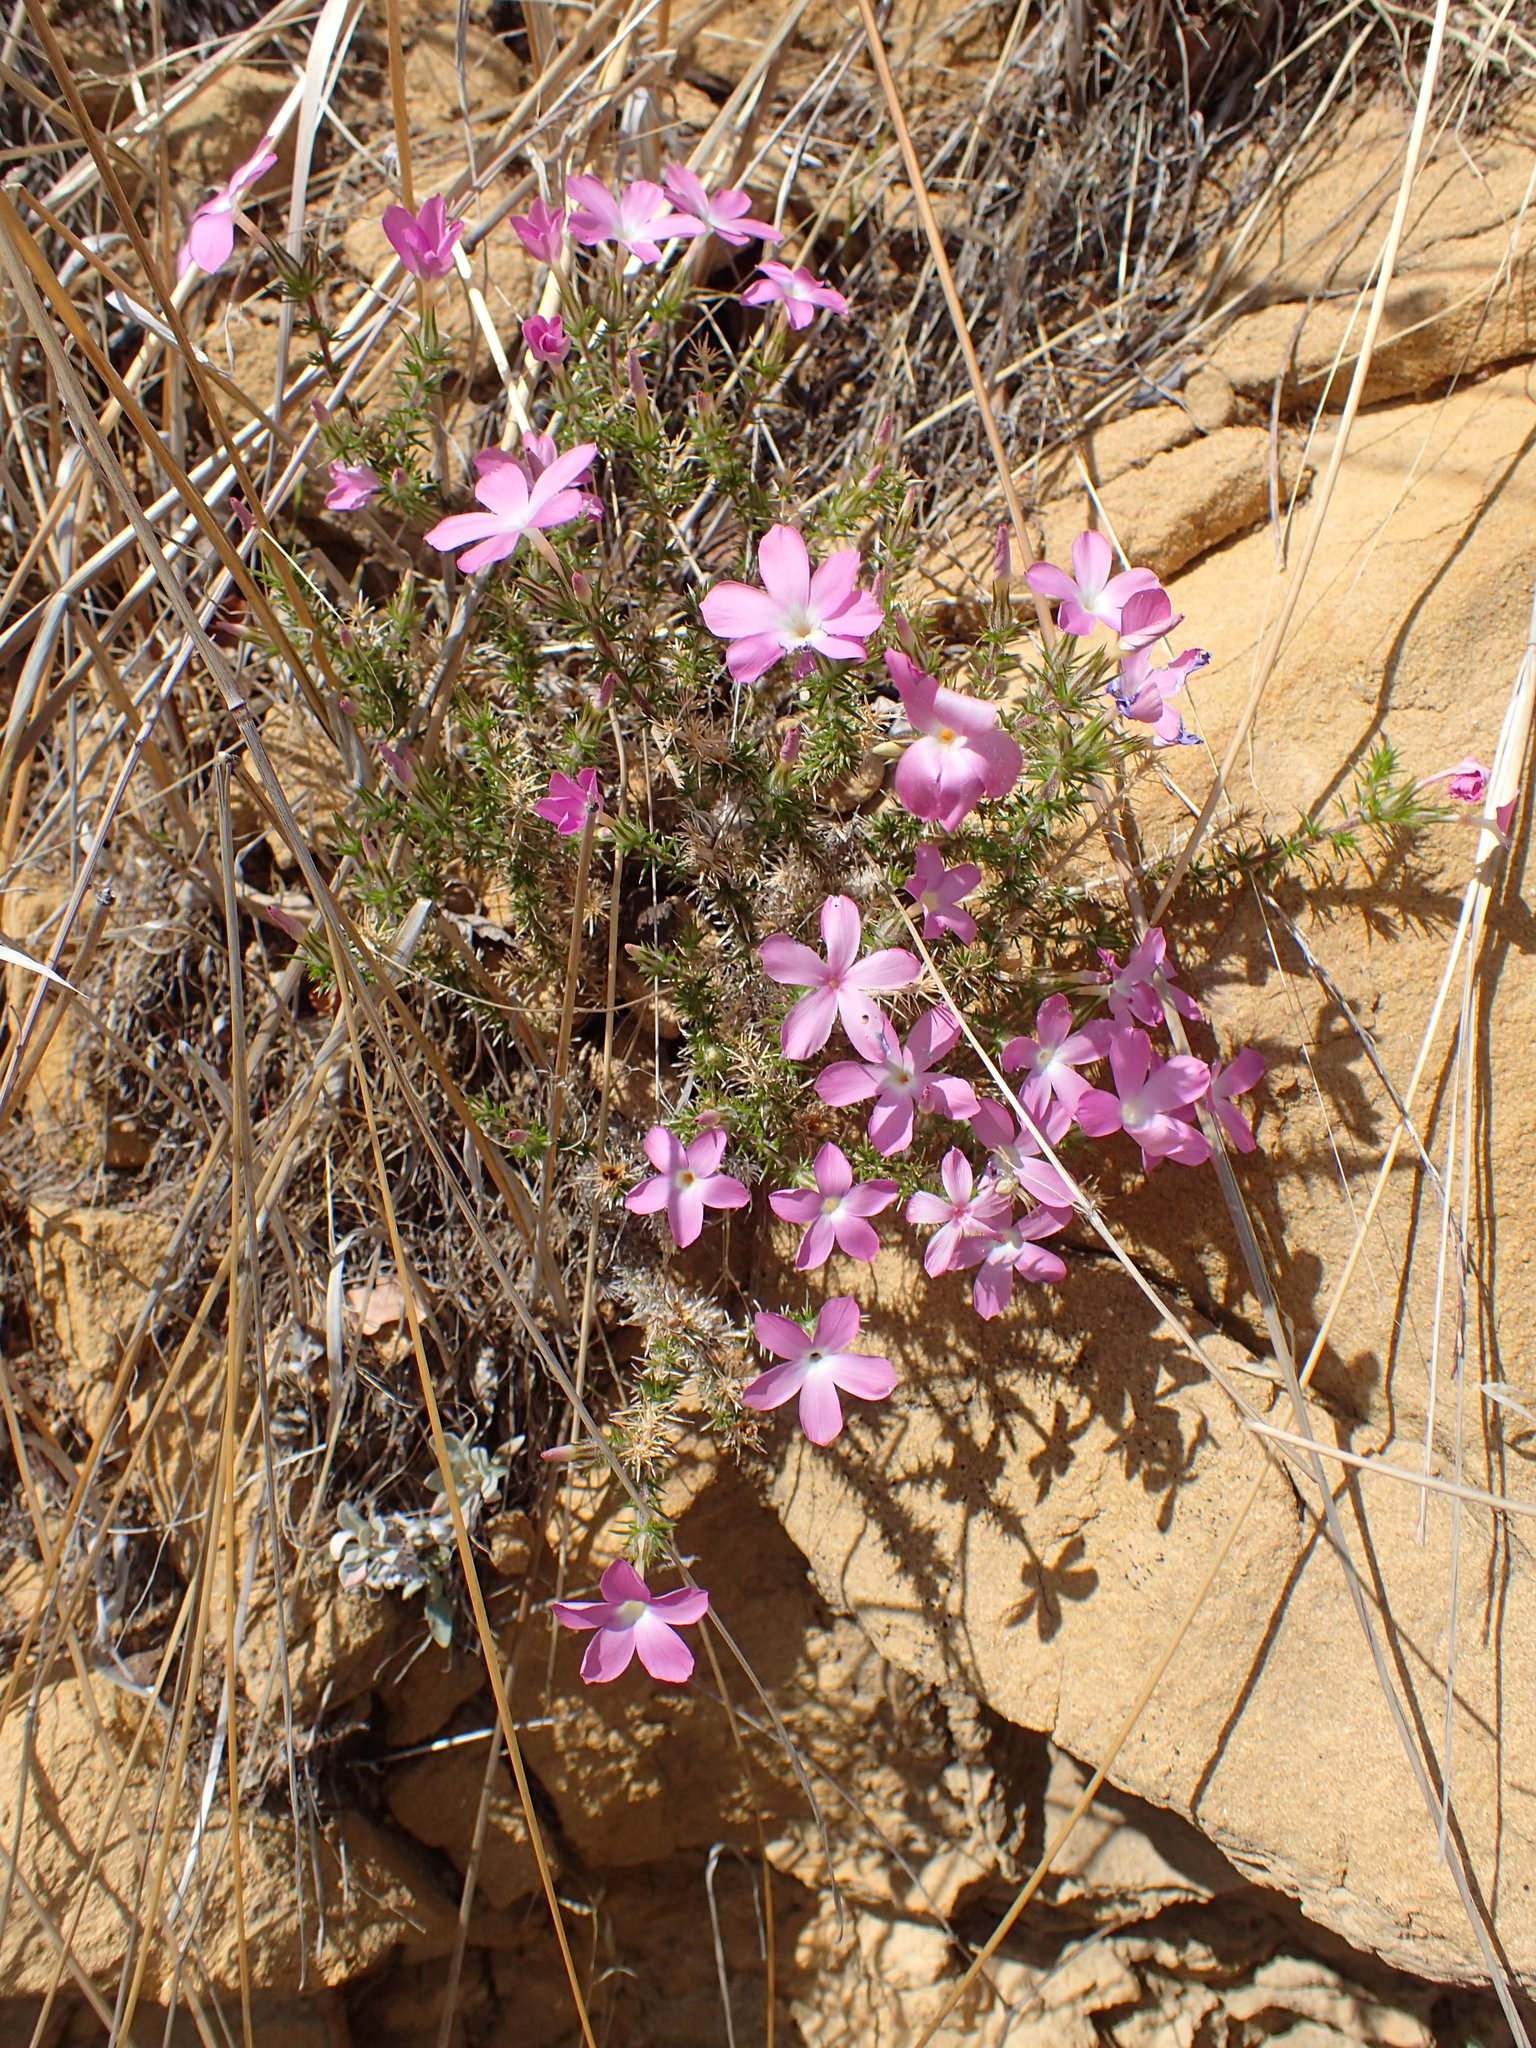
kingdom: Plantae
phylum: Tracheophyta
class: Magnoliopsida
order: Ericales
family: Polemoniaceae
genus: Linanthus
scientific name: Linanthus californicus
